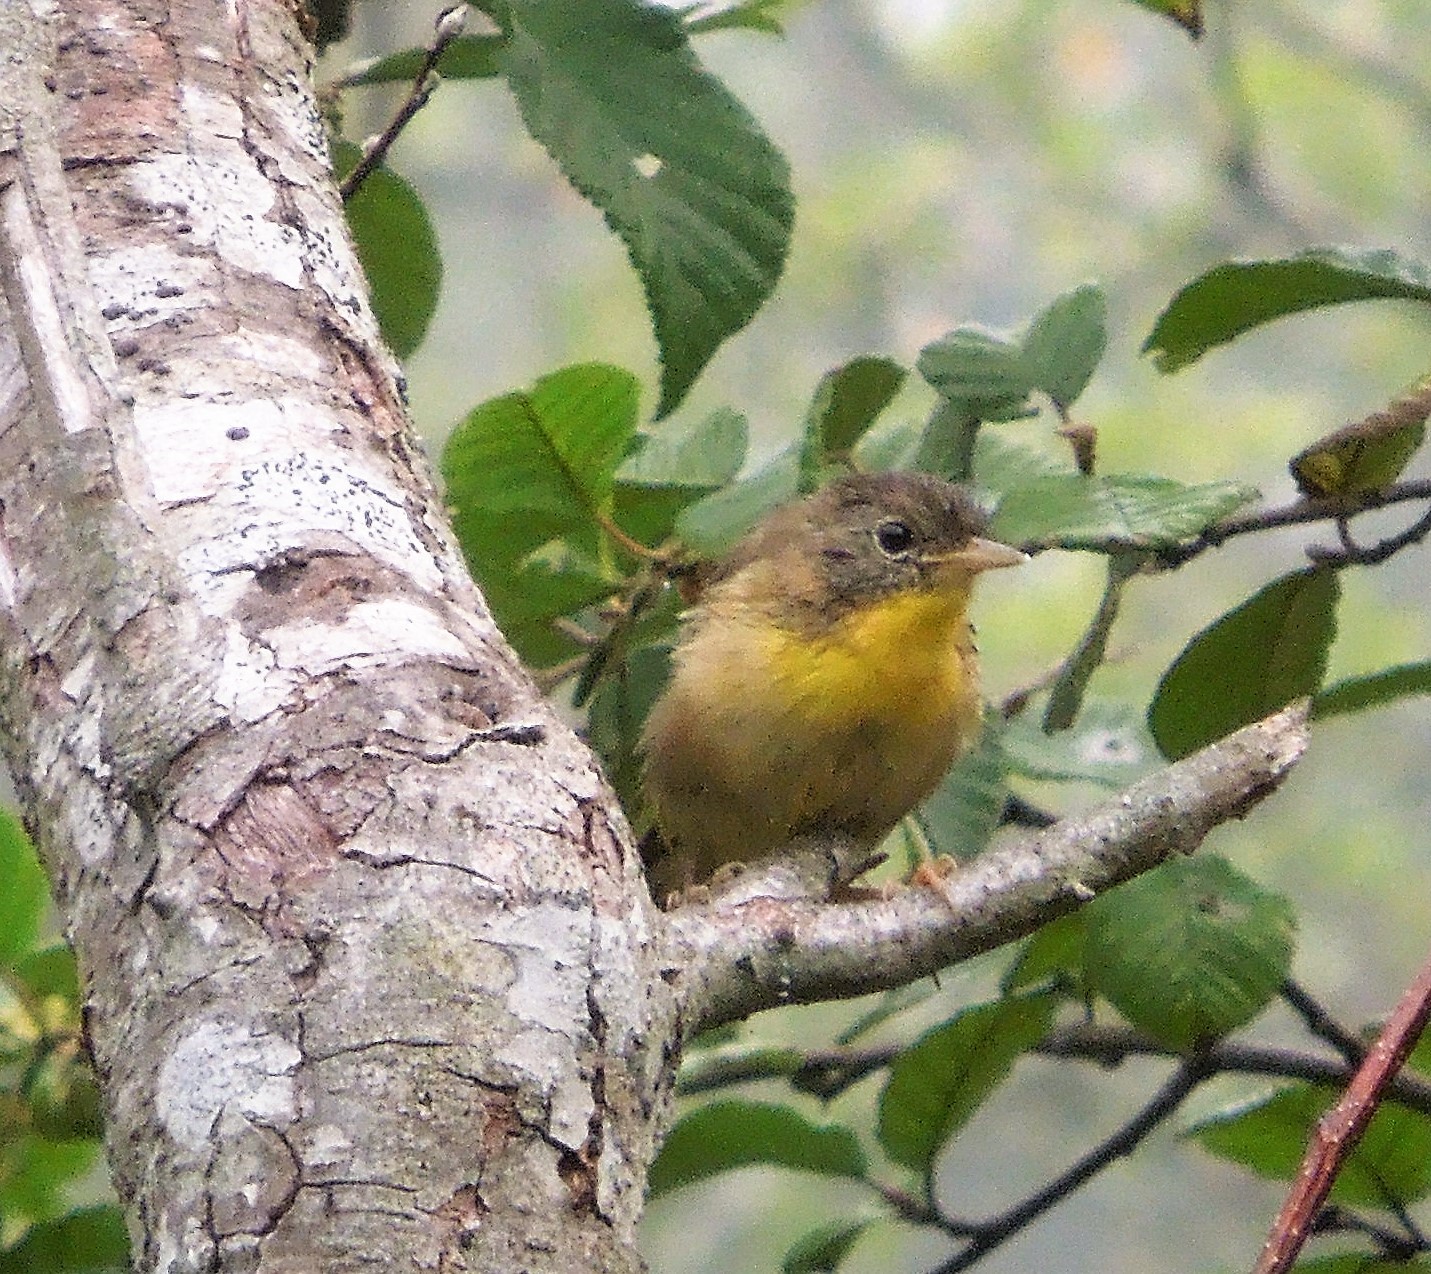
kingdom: Animalia
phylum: Chordata
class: Aves
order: Passeriformes
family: Parulidae
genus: Geothlypis
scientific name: Geothlypis trichas
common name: Common yellowthroat
